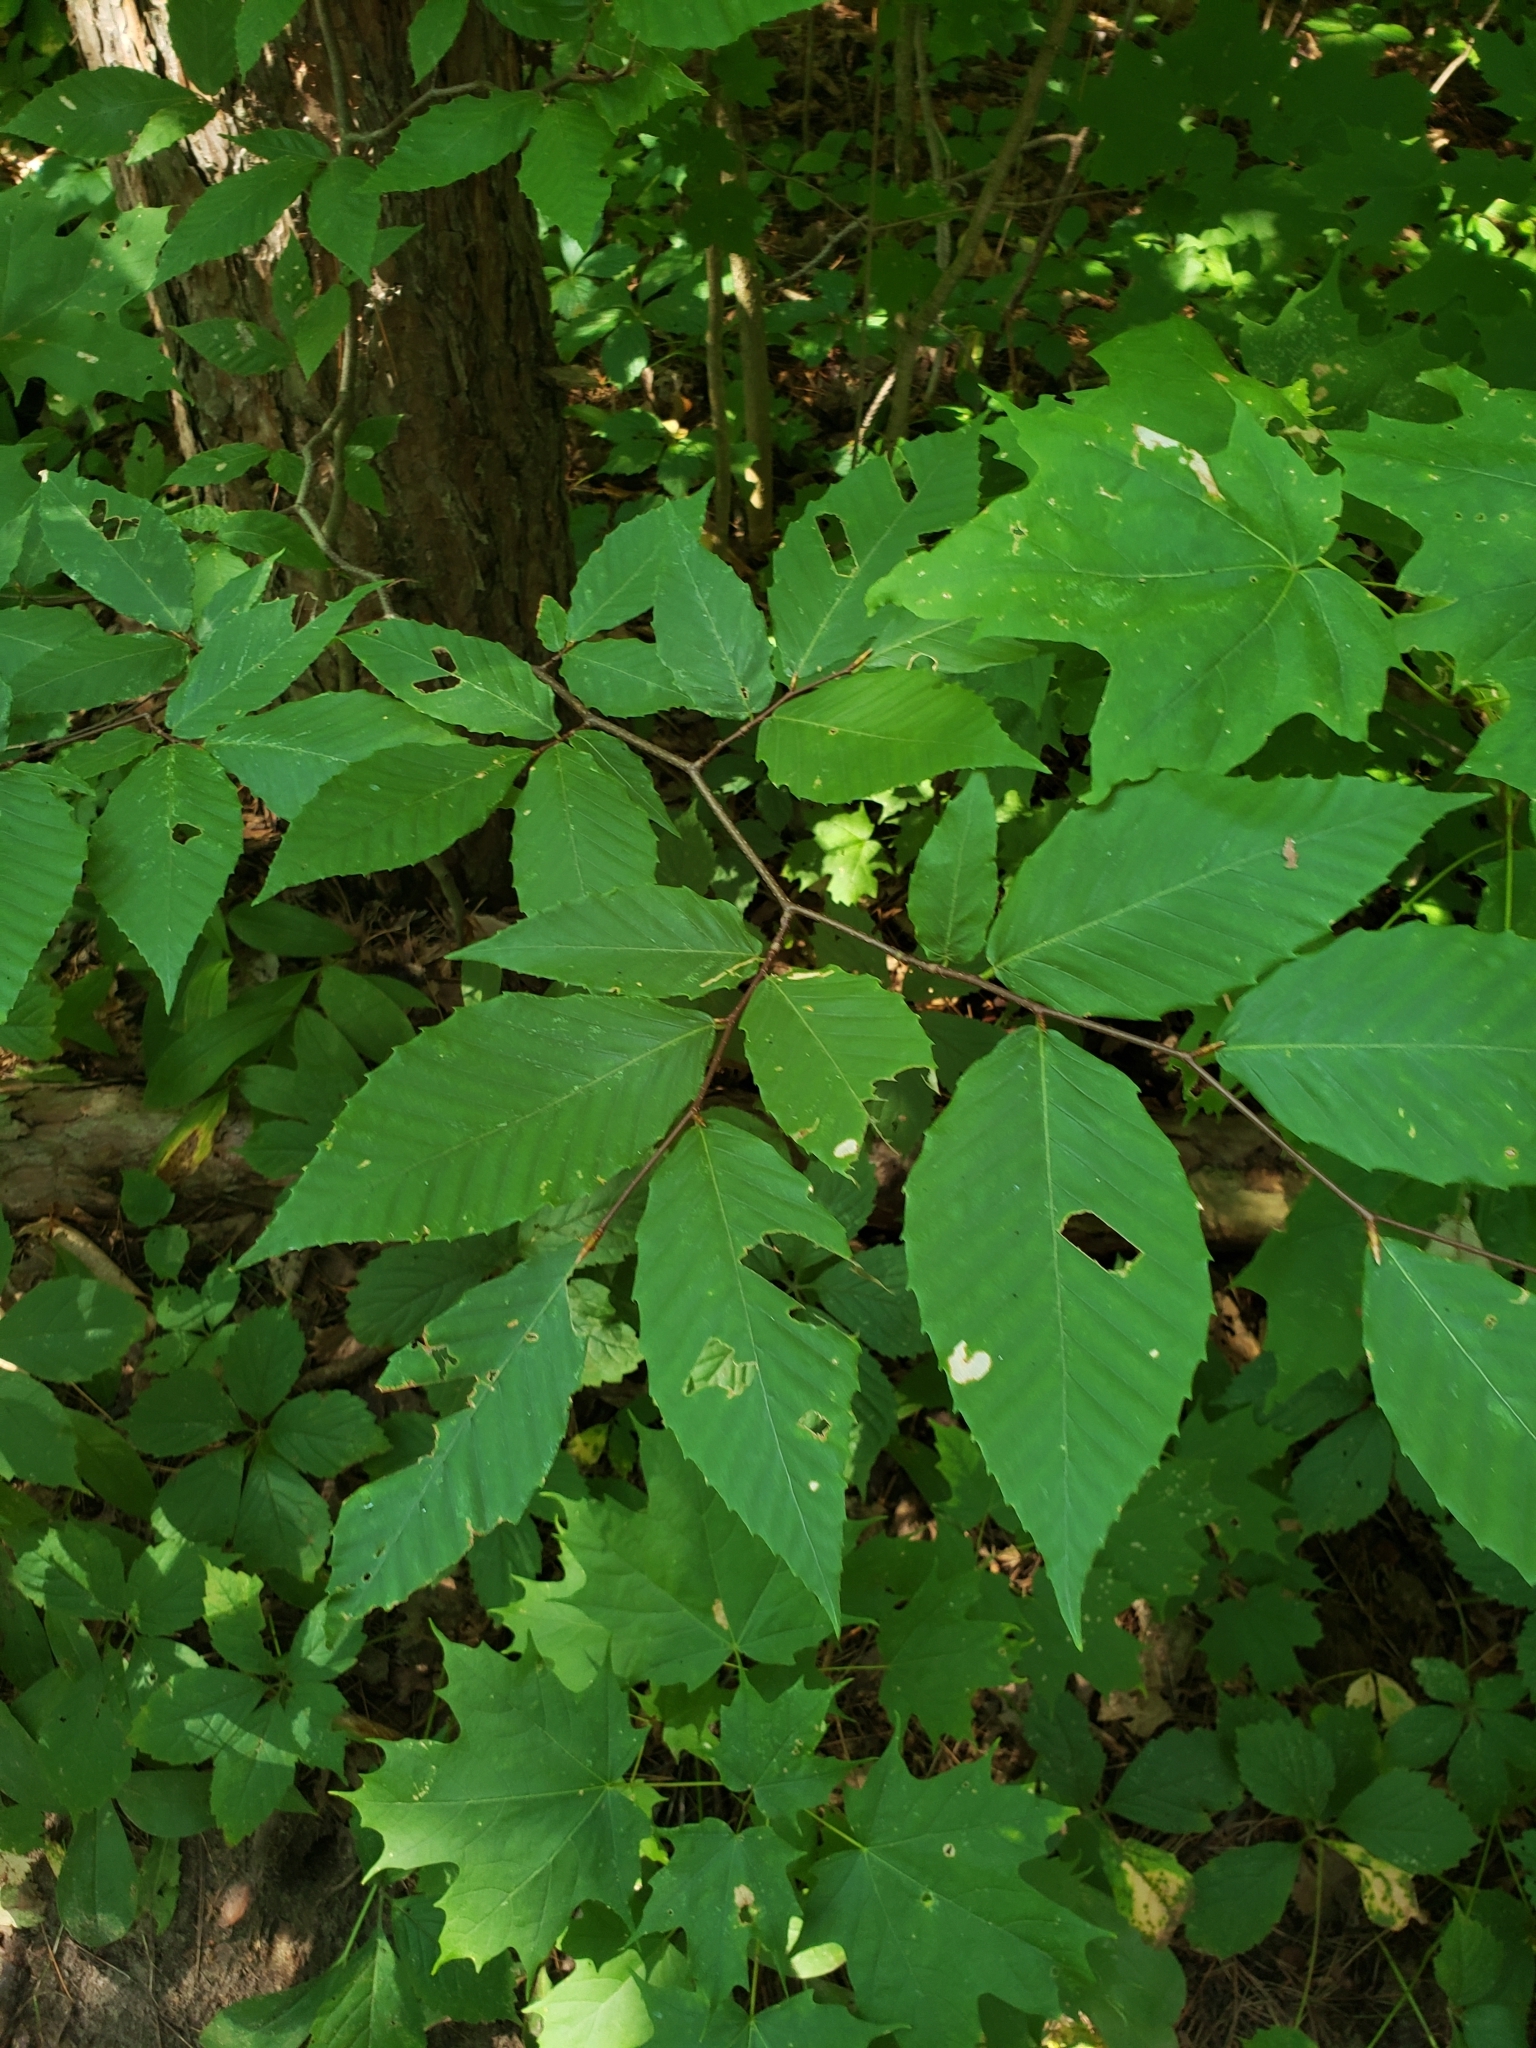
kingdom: Plantae
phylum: Tracheophyta
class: Magnoliopsida
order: Fagales
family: Fagaceae
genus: Fagus
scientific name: Fagus grandifolia
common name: American beech
